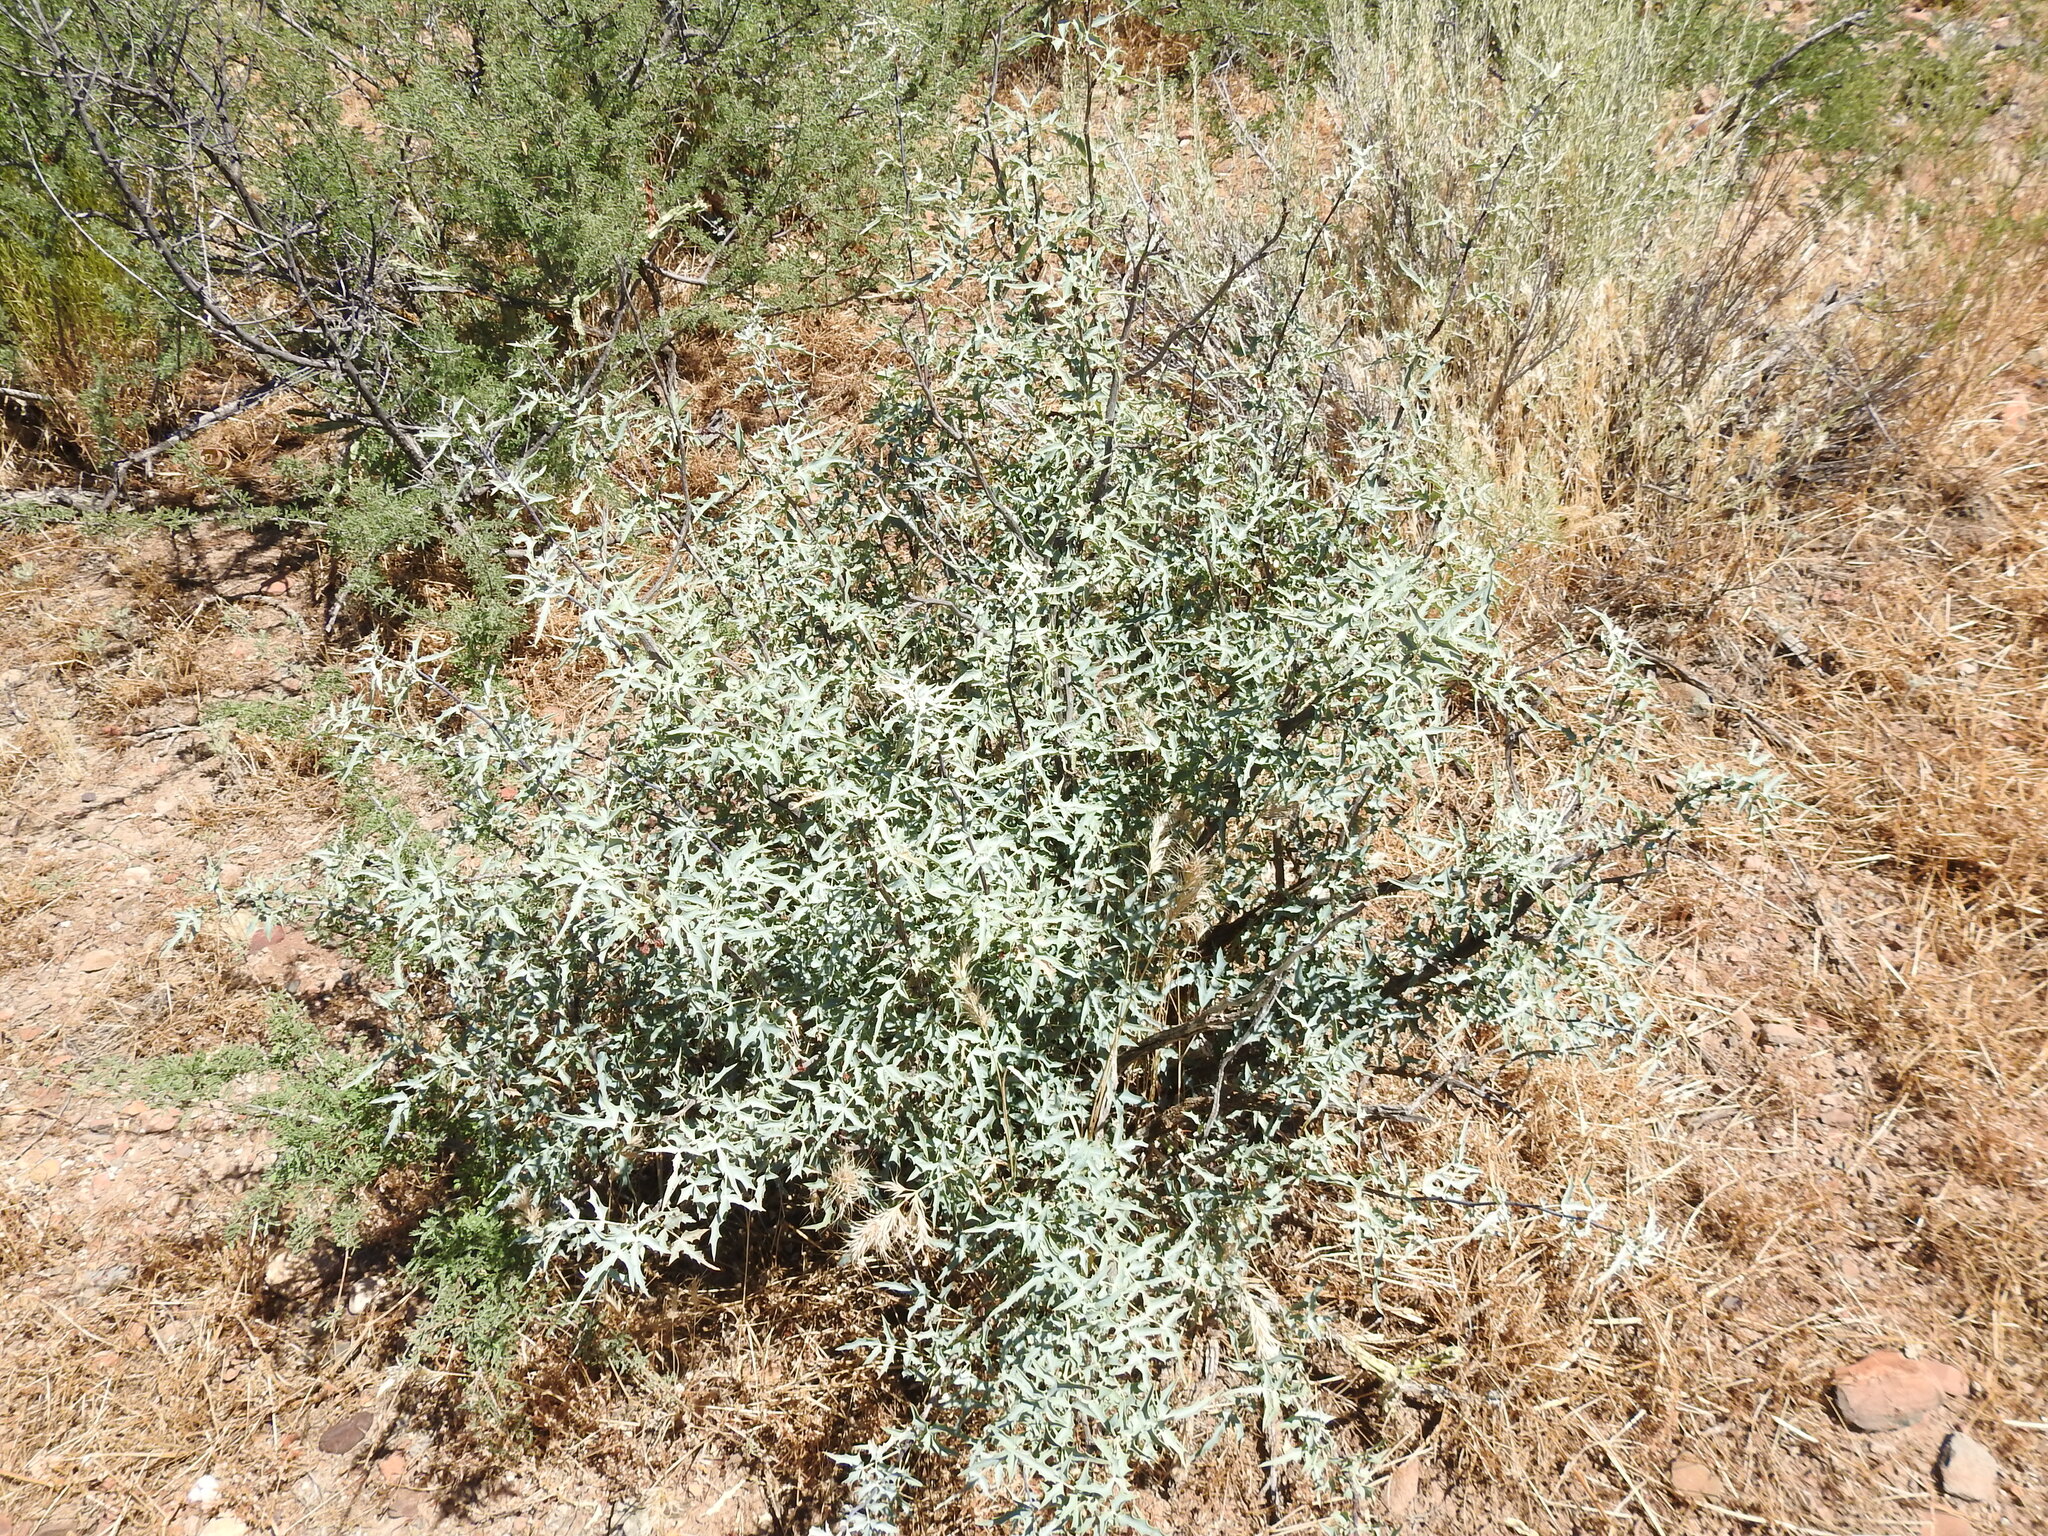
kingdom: Plantae
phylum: Tracheophyta
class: Magnoliopsida
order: Ranunculales
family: Berberidaceae
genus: Alloberberis
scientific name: Alloberberis haematocarpa
